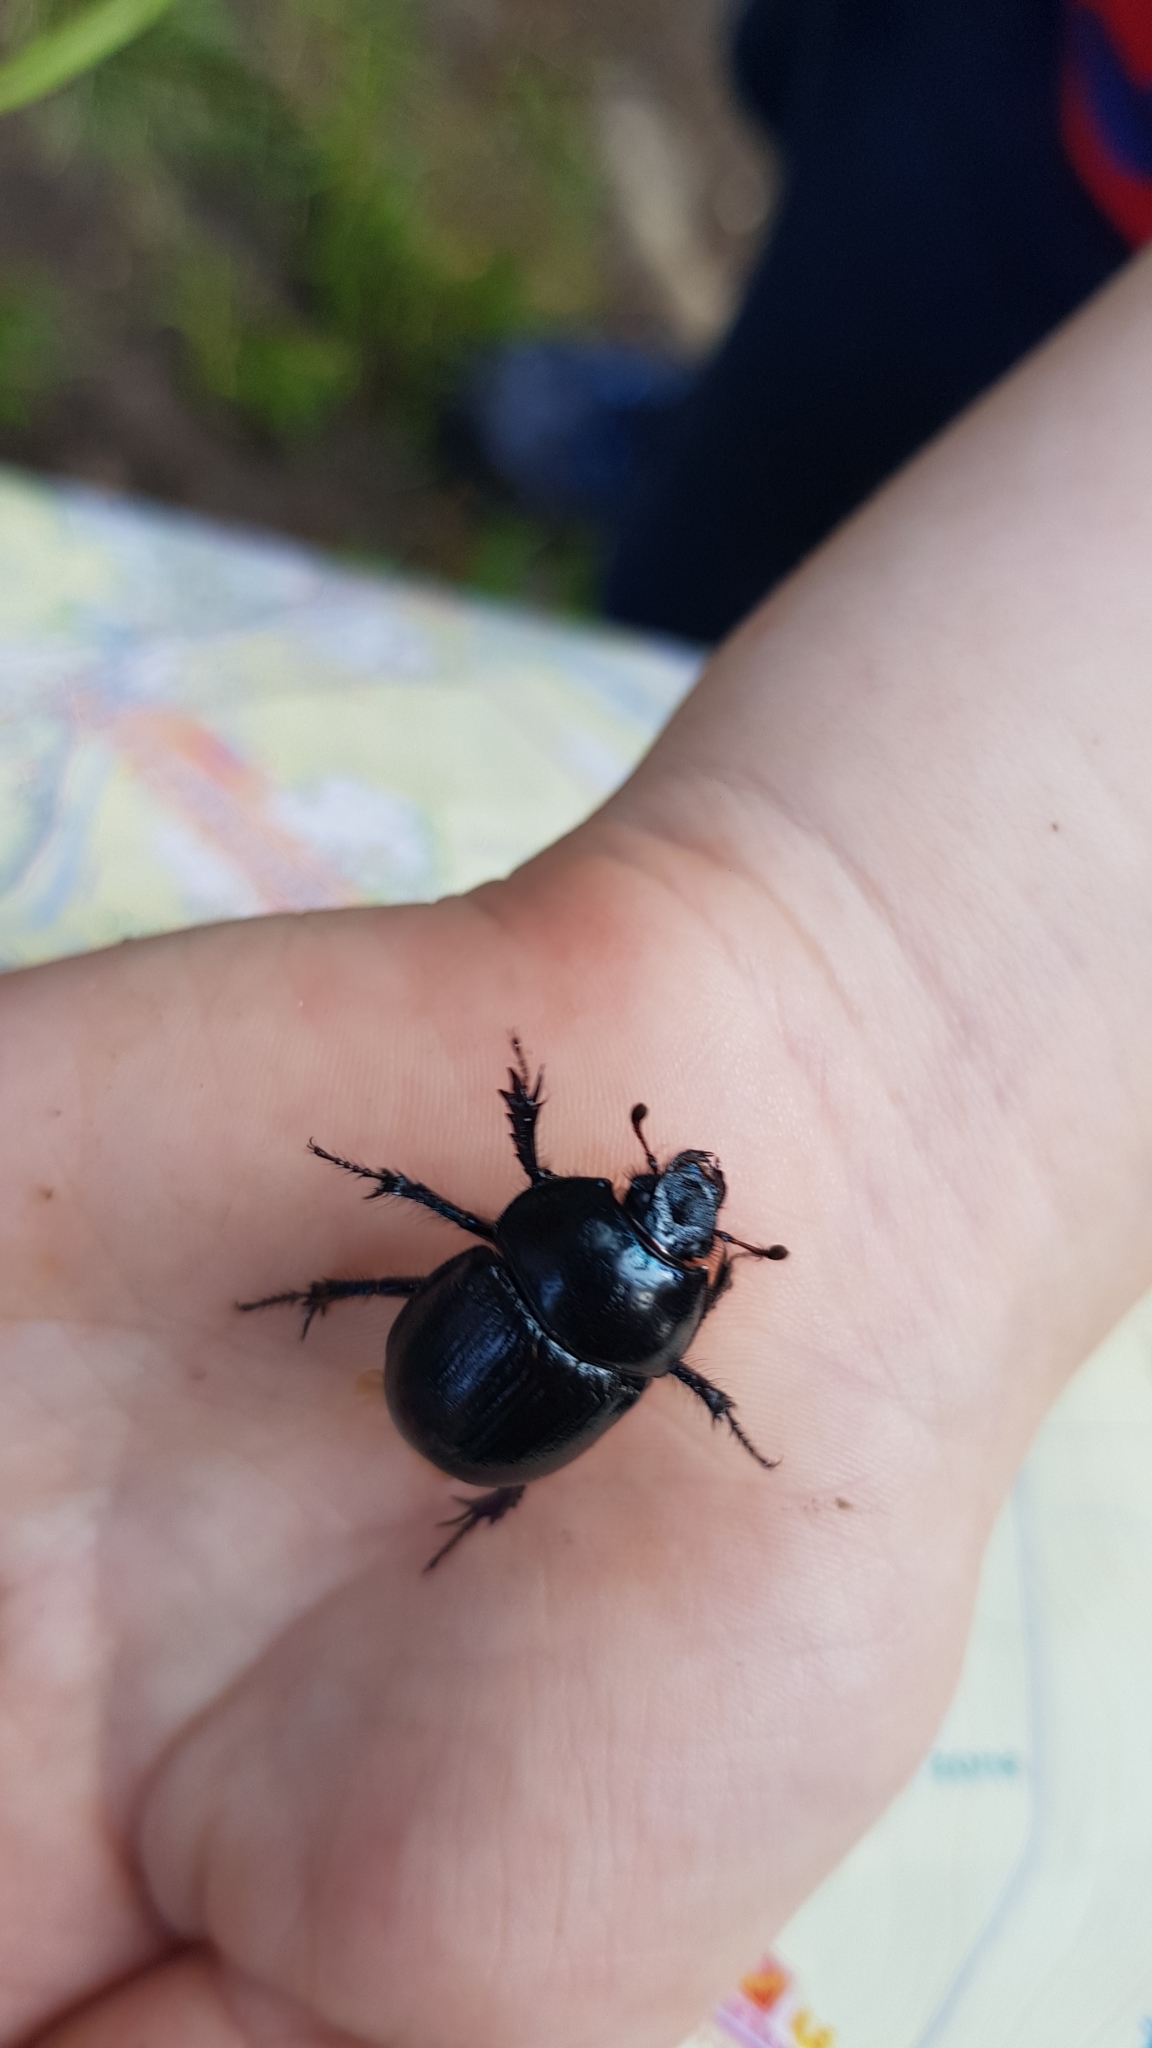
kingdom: Animalia
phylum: Arthropoda
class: Insecta
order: Coleoptera
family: Geotrupidae
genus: Anoplotrupes
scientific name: Anoplotrupes stercorosus
